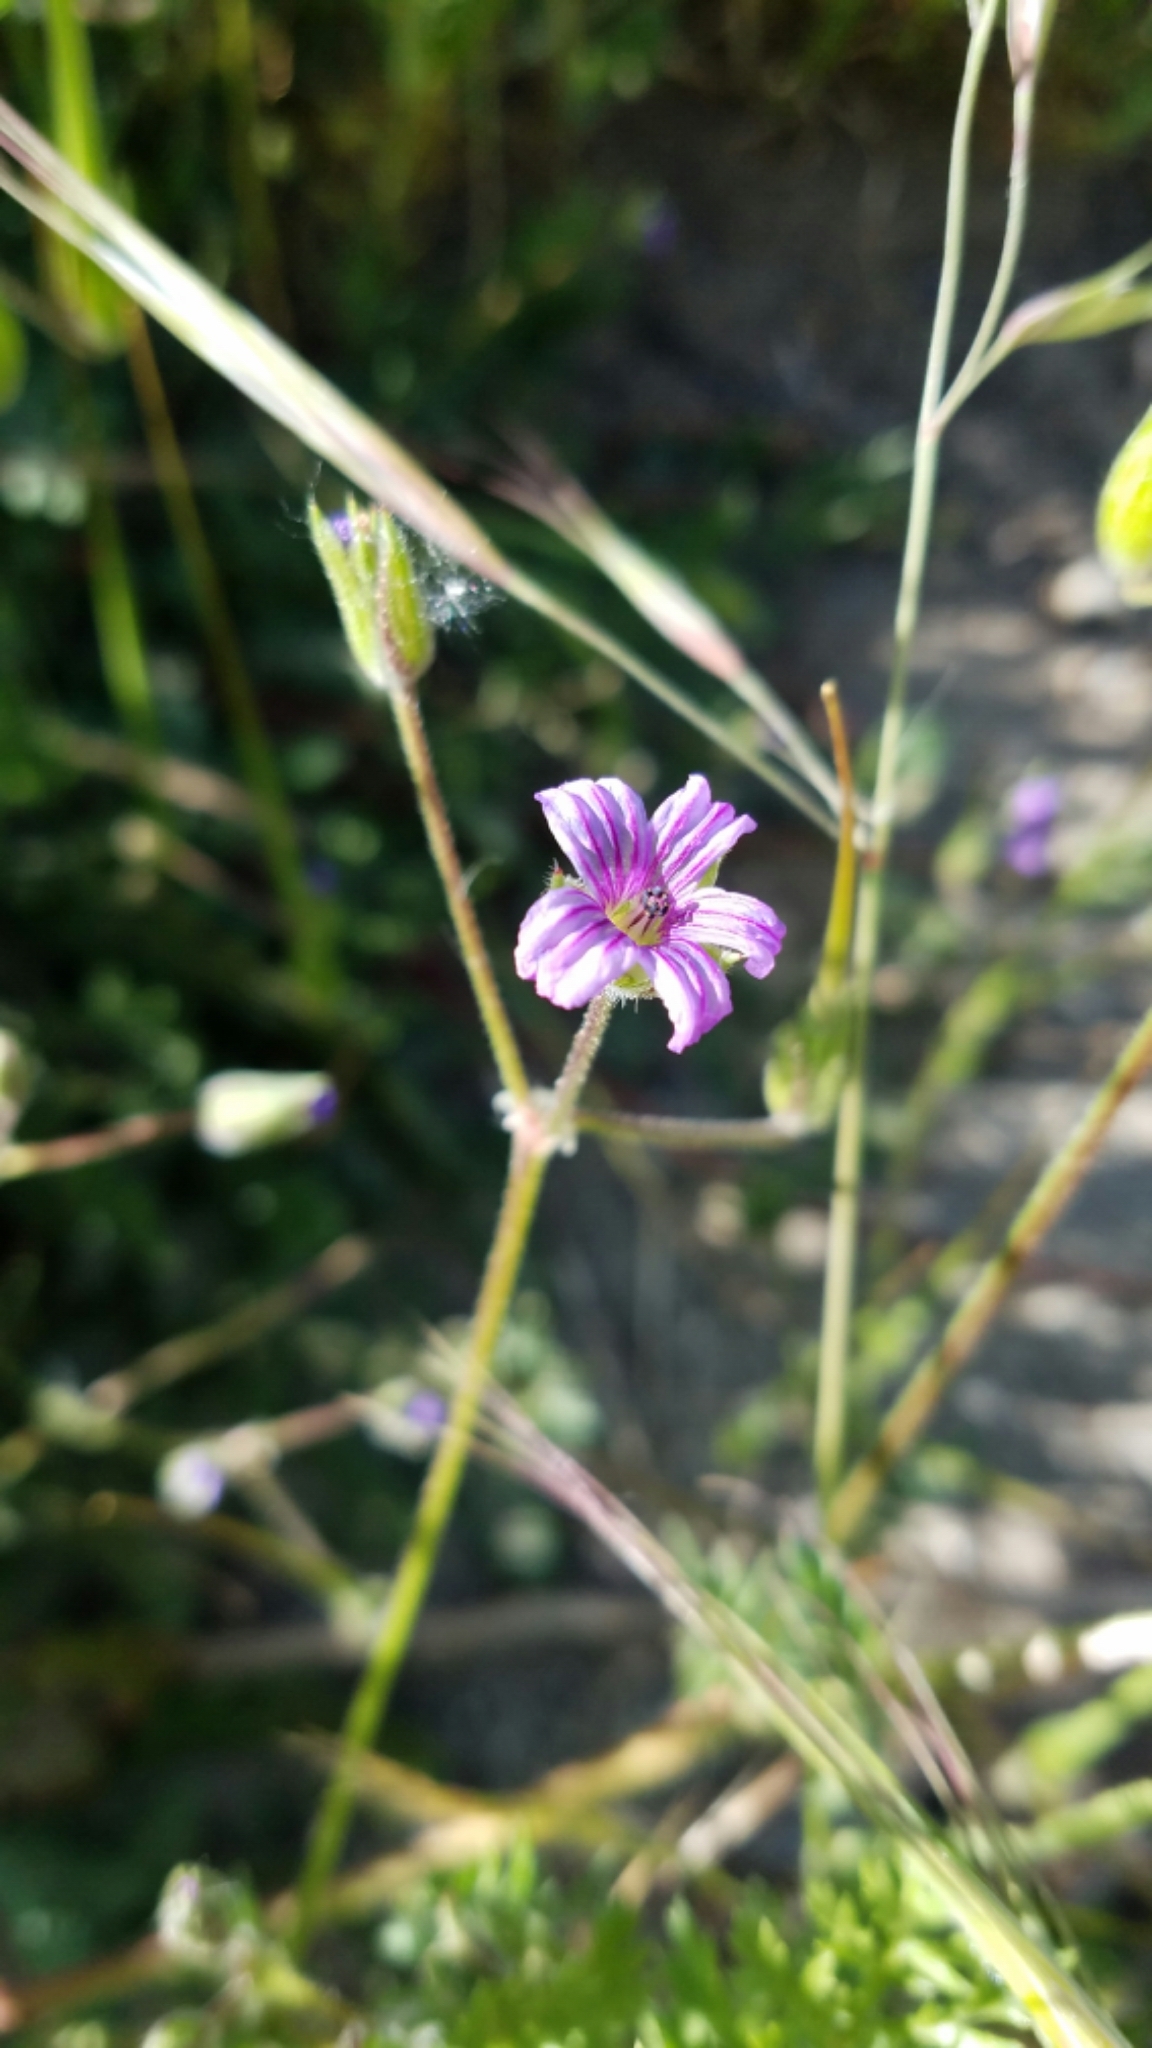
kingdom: Plantae
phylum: Tracheophyta
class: Magnoliopsida
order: Geraniales
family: Geraniaceae
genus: Erodium
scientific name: Erodium botrys
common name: Mediterranean stork's-bill
